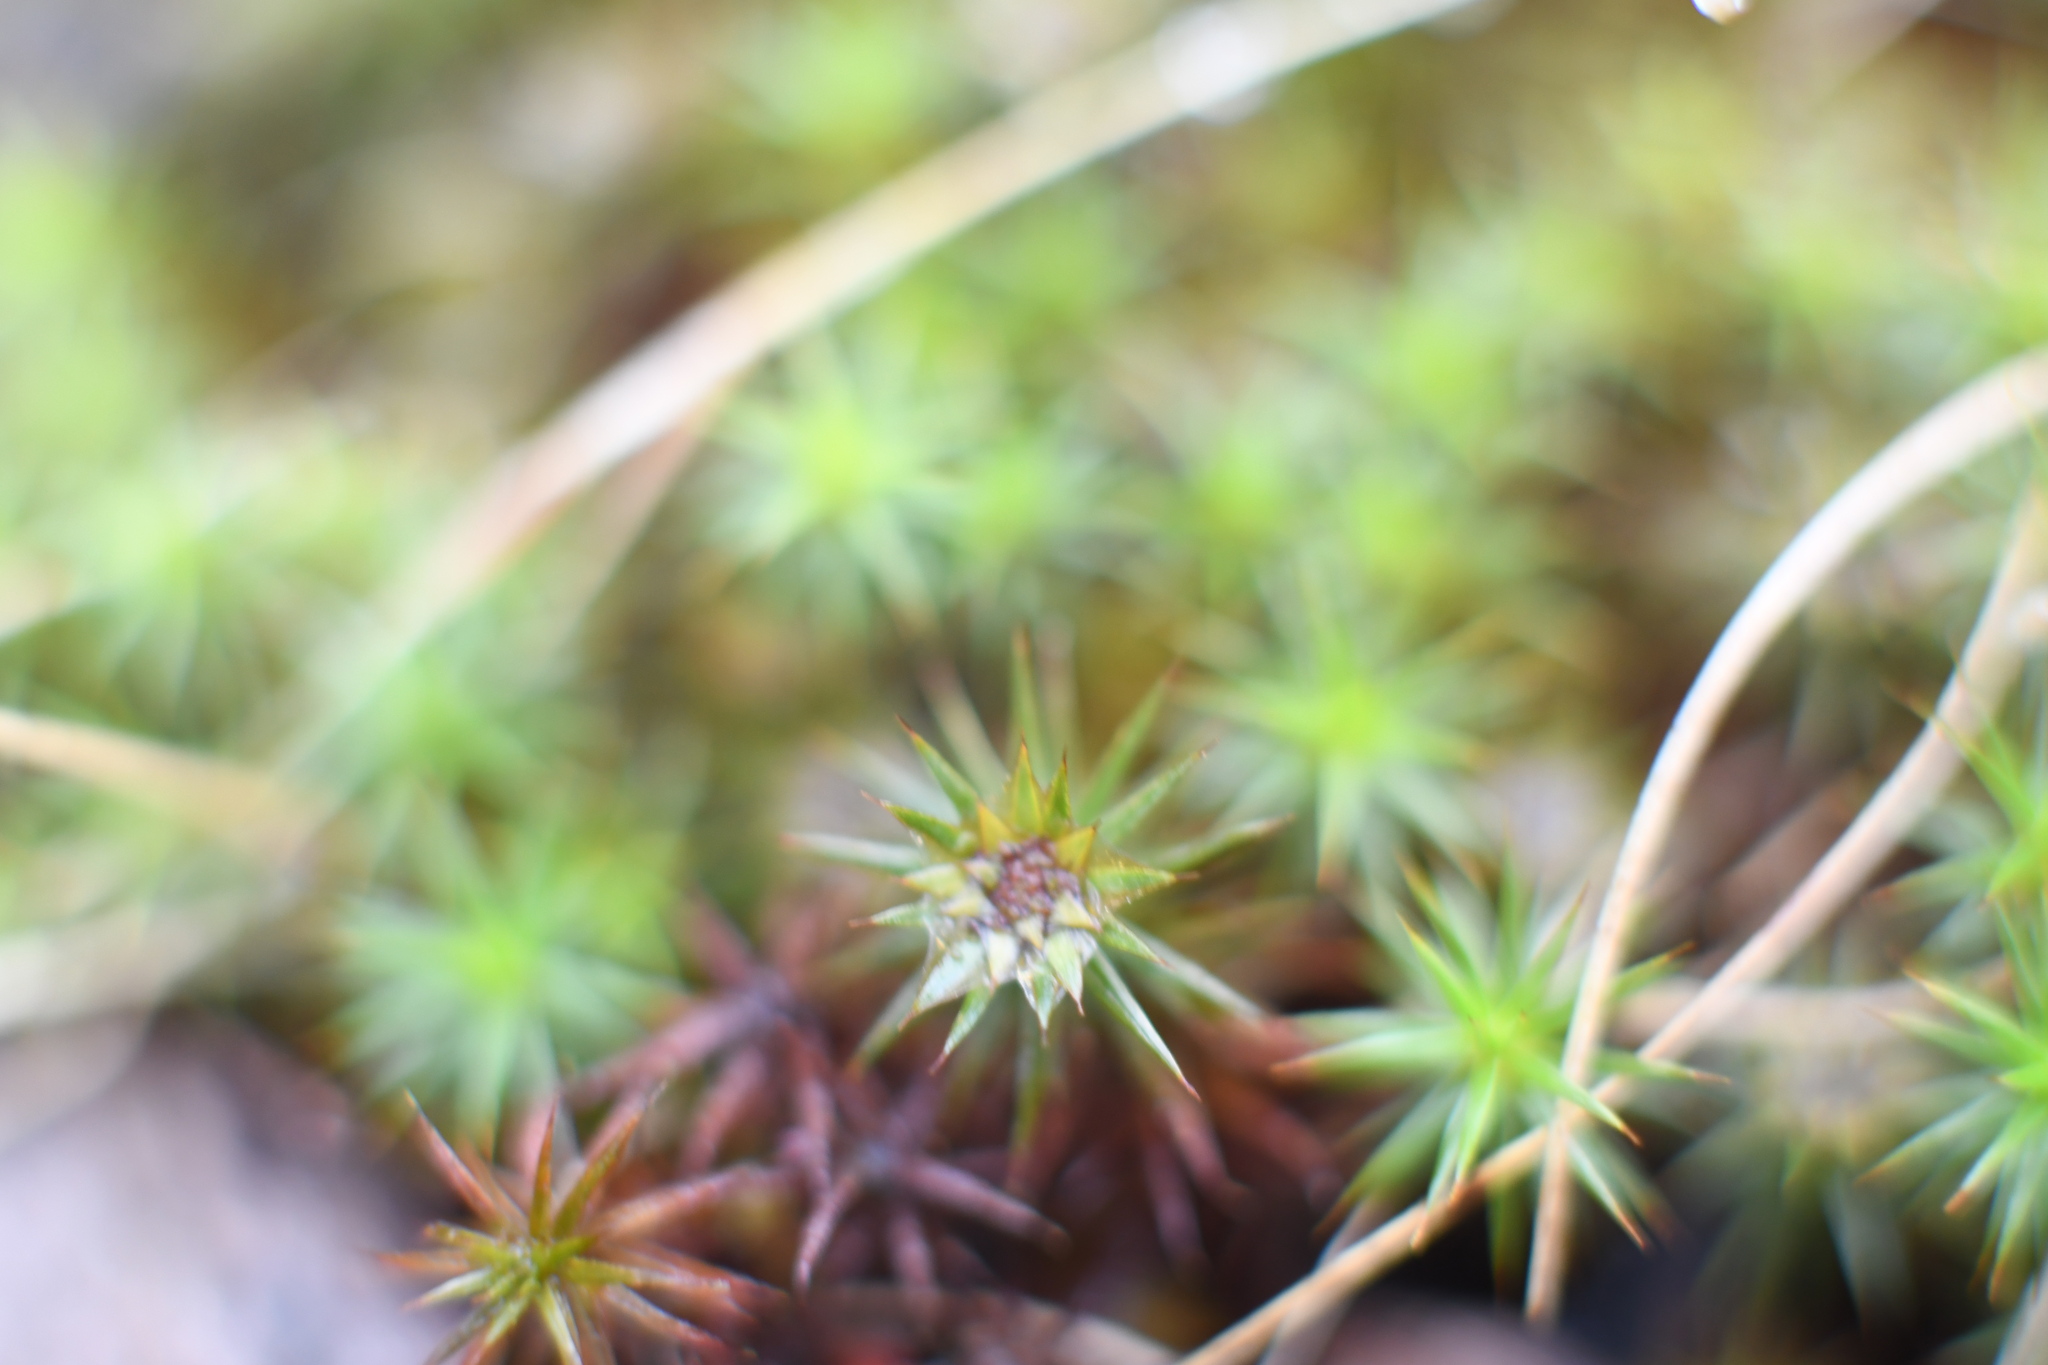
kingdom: Plantae
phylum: Bryophyta
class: Polytrichopsida
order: Polytrichales
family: Polytrichaceae
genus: Polytrichum
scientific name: Polytrichum juniperinum
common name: Juniper haircap moss
